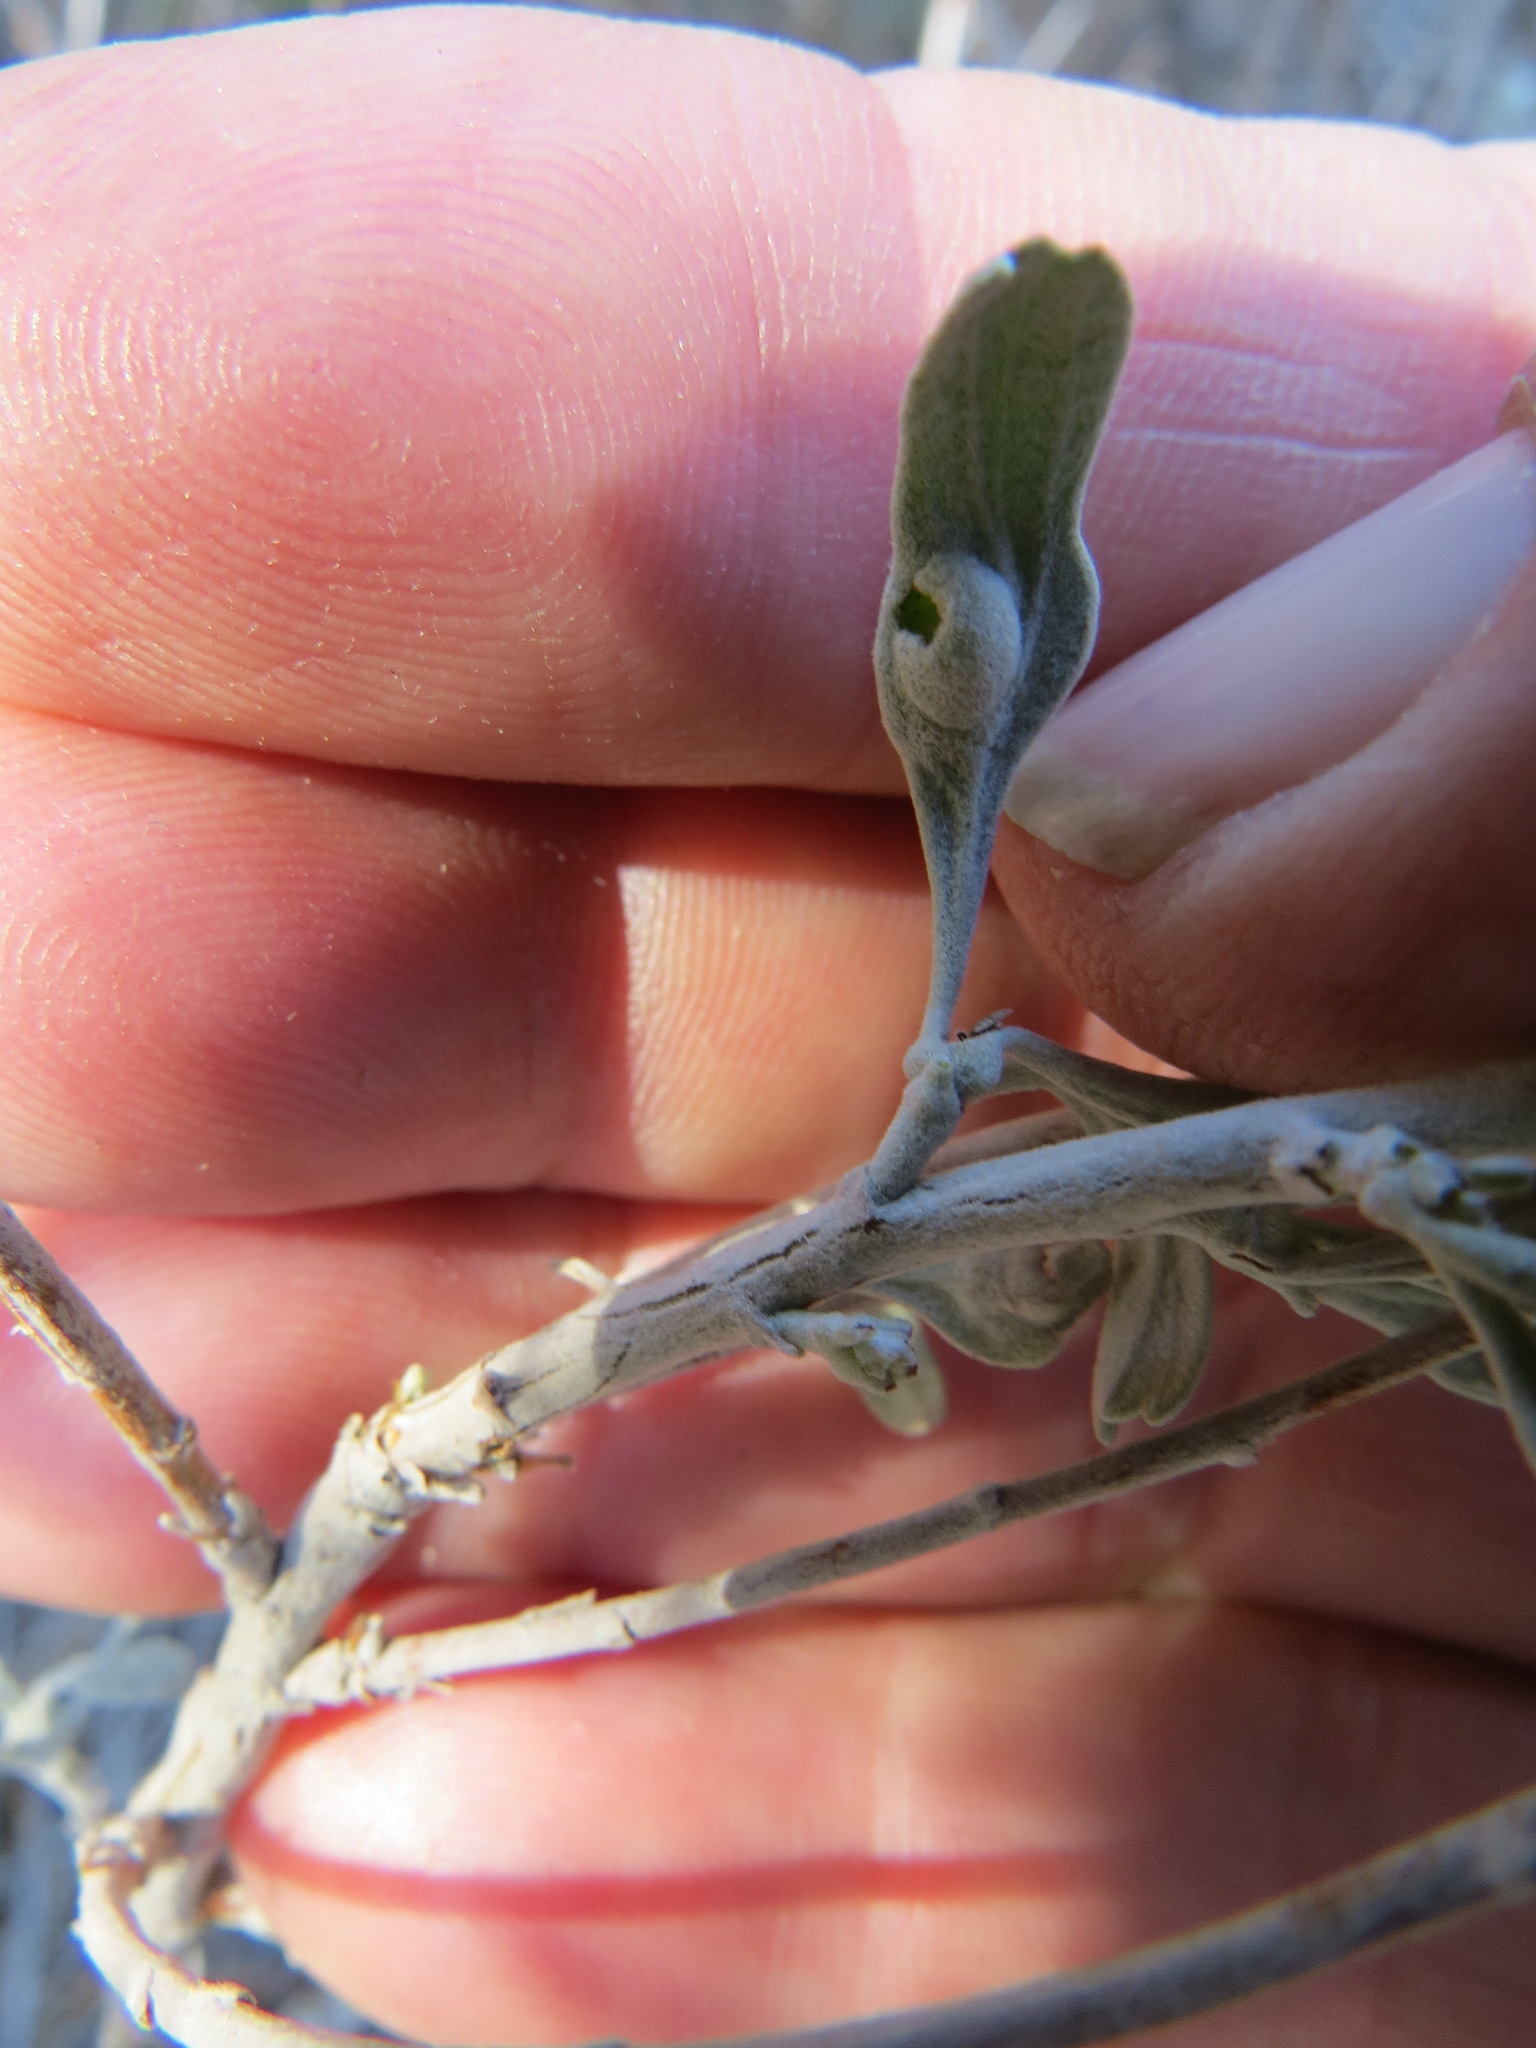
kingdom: Animalia
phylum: Arthropoda
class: Insecta
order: Diptera
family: Cecidomyiidae
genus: Rhopalomyia
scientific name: Rhopalomyia tumidibulla
